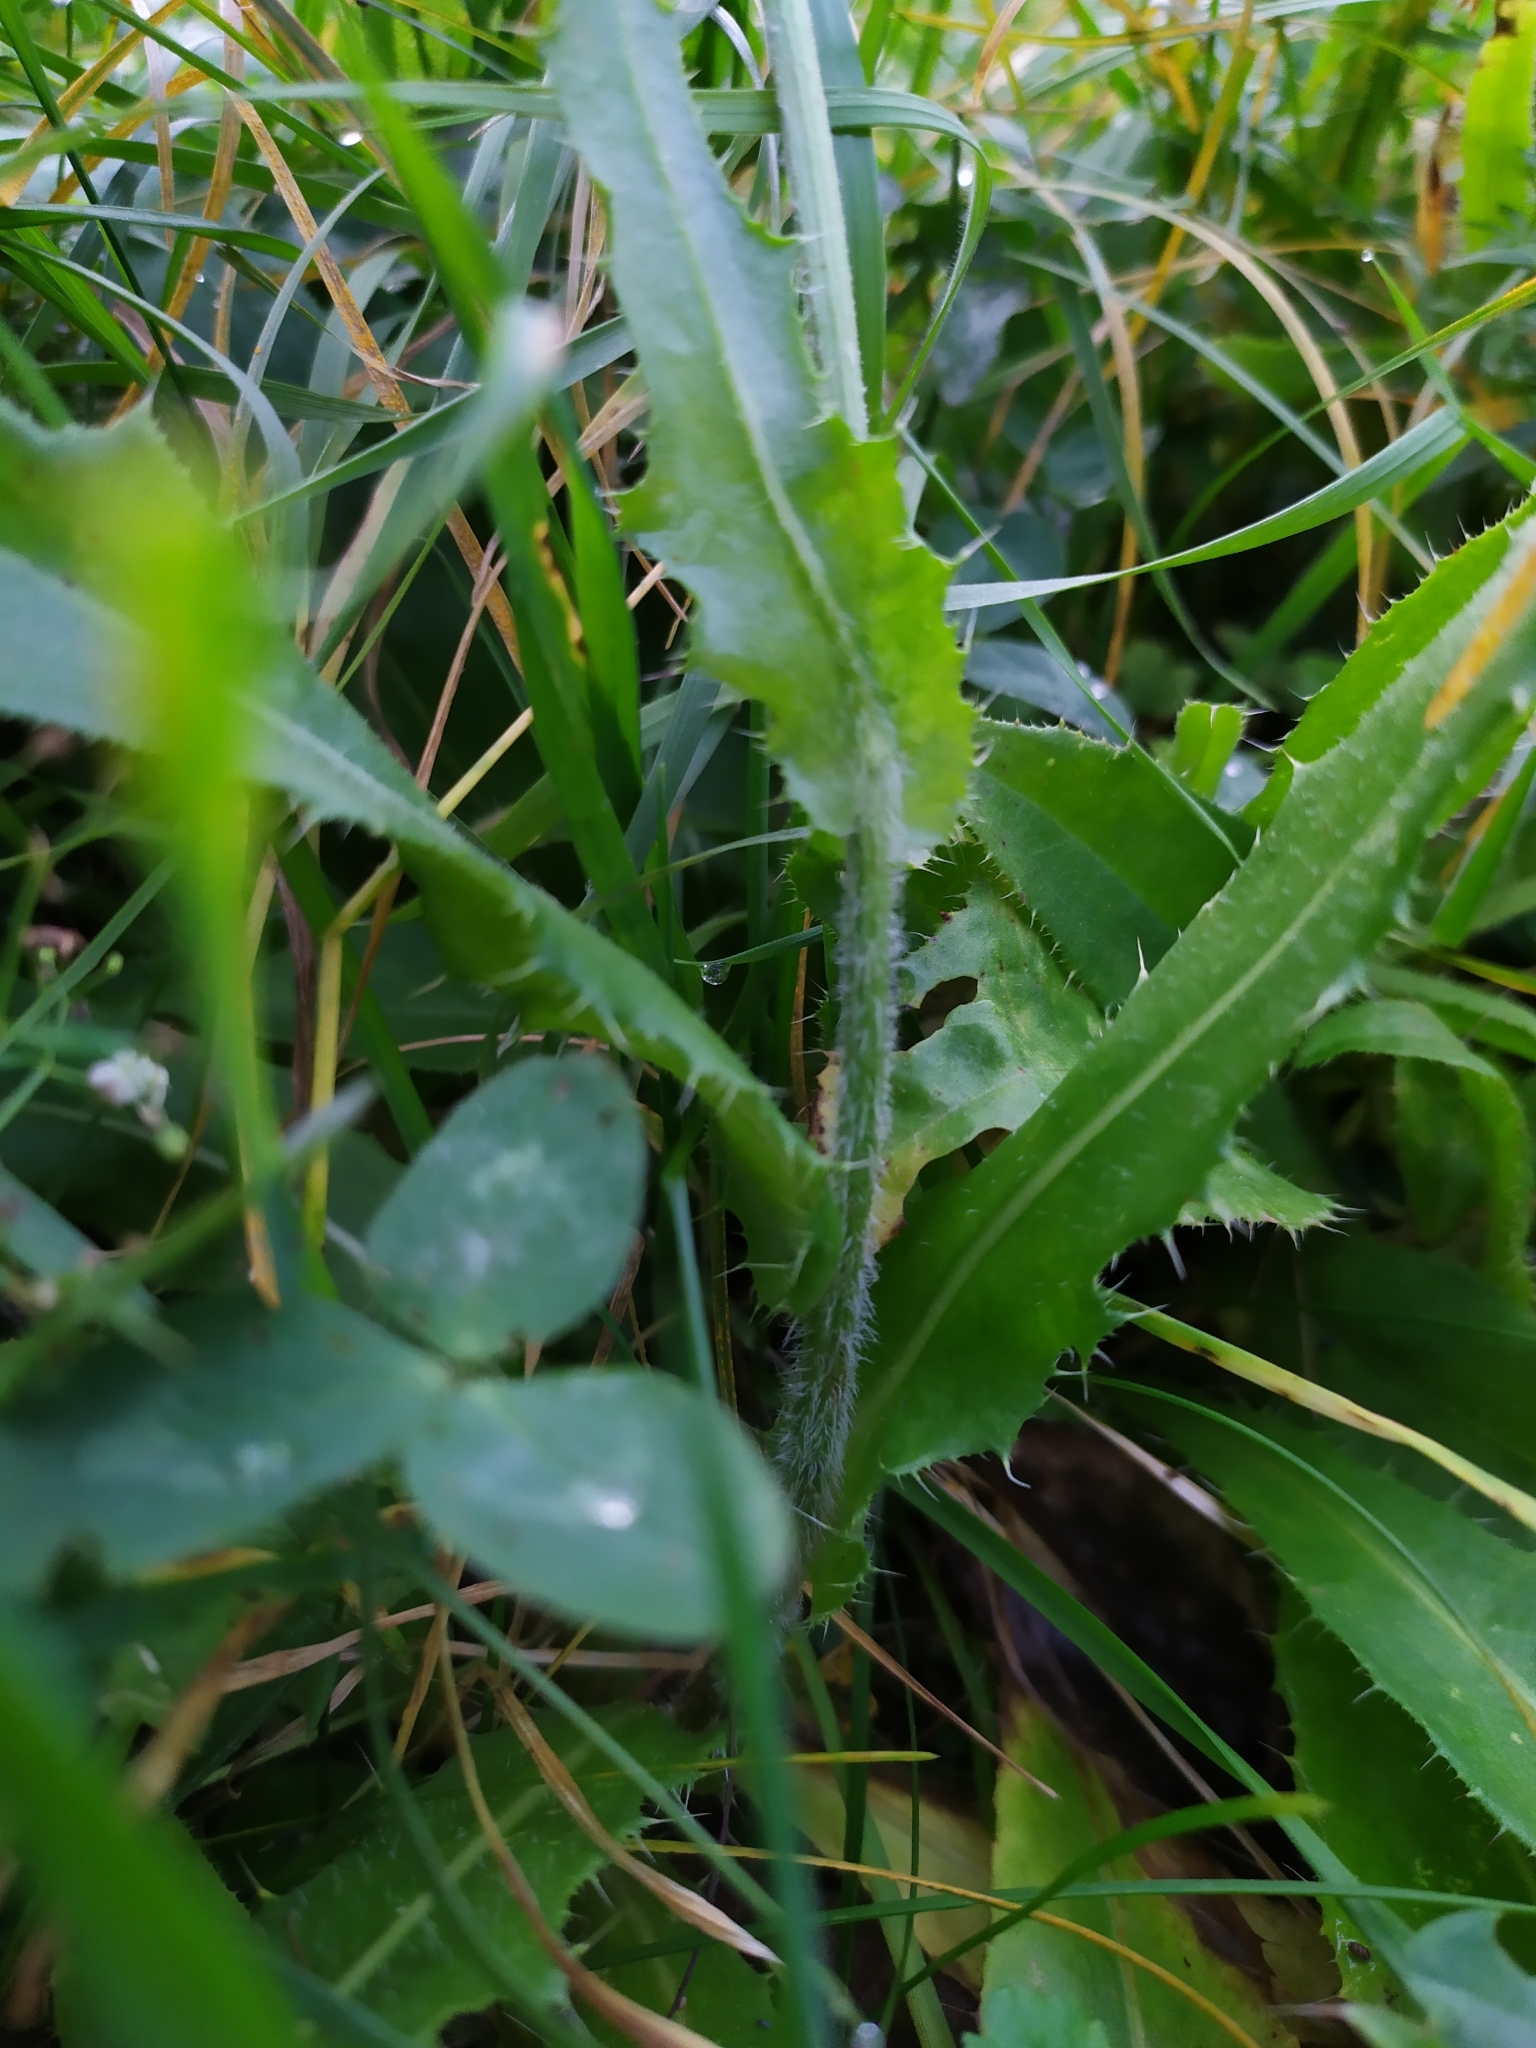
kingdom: Plantae
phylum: Tracheophyta
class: Magnoliopsida
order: Asterales
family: Asteraceae
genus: Cirsium
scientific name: Cirsium canum
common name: Queen anne's thistle
